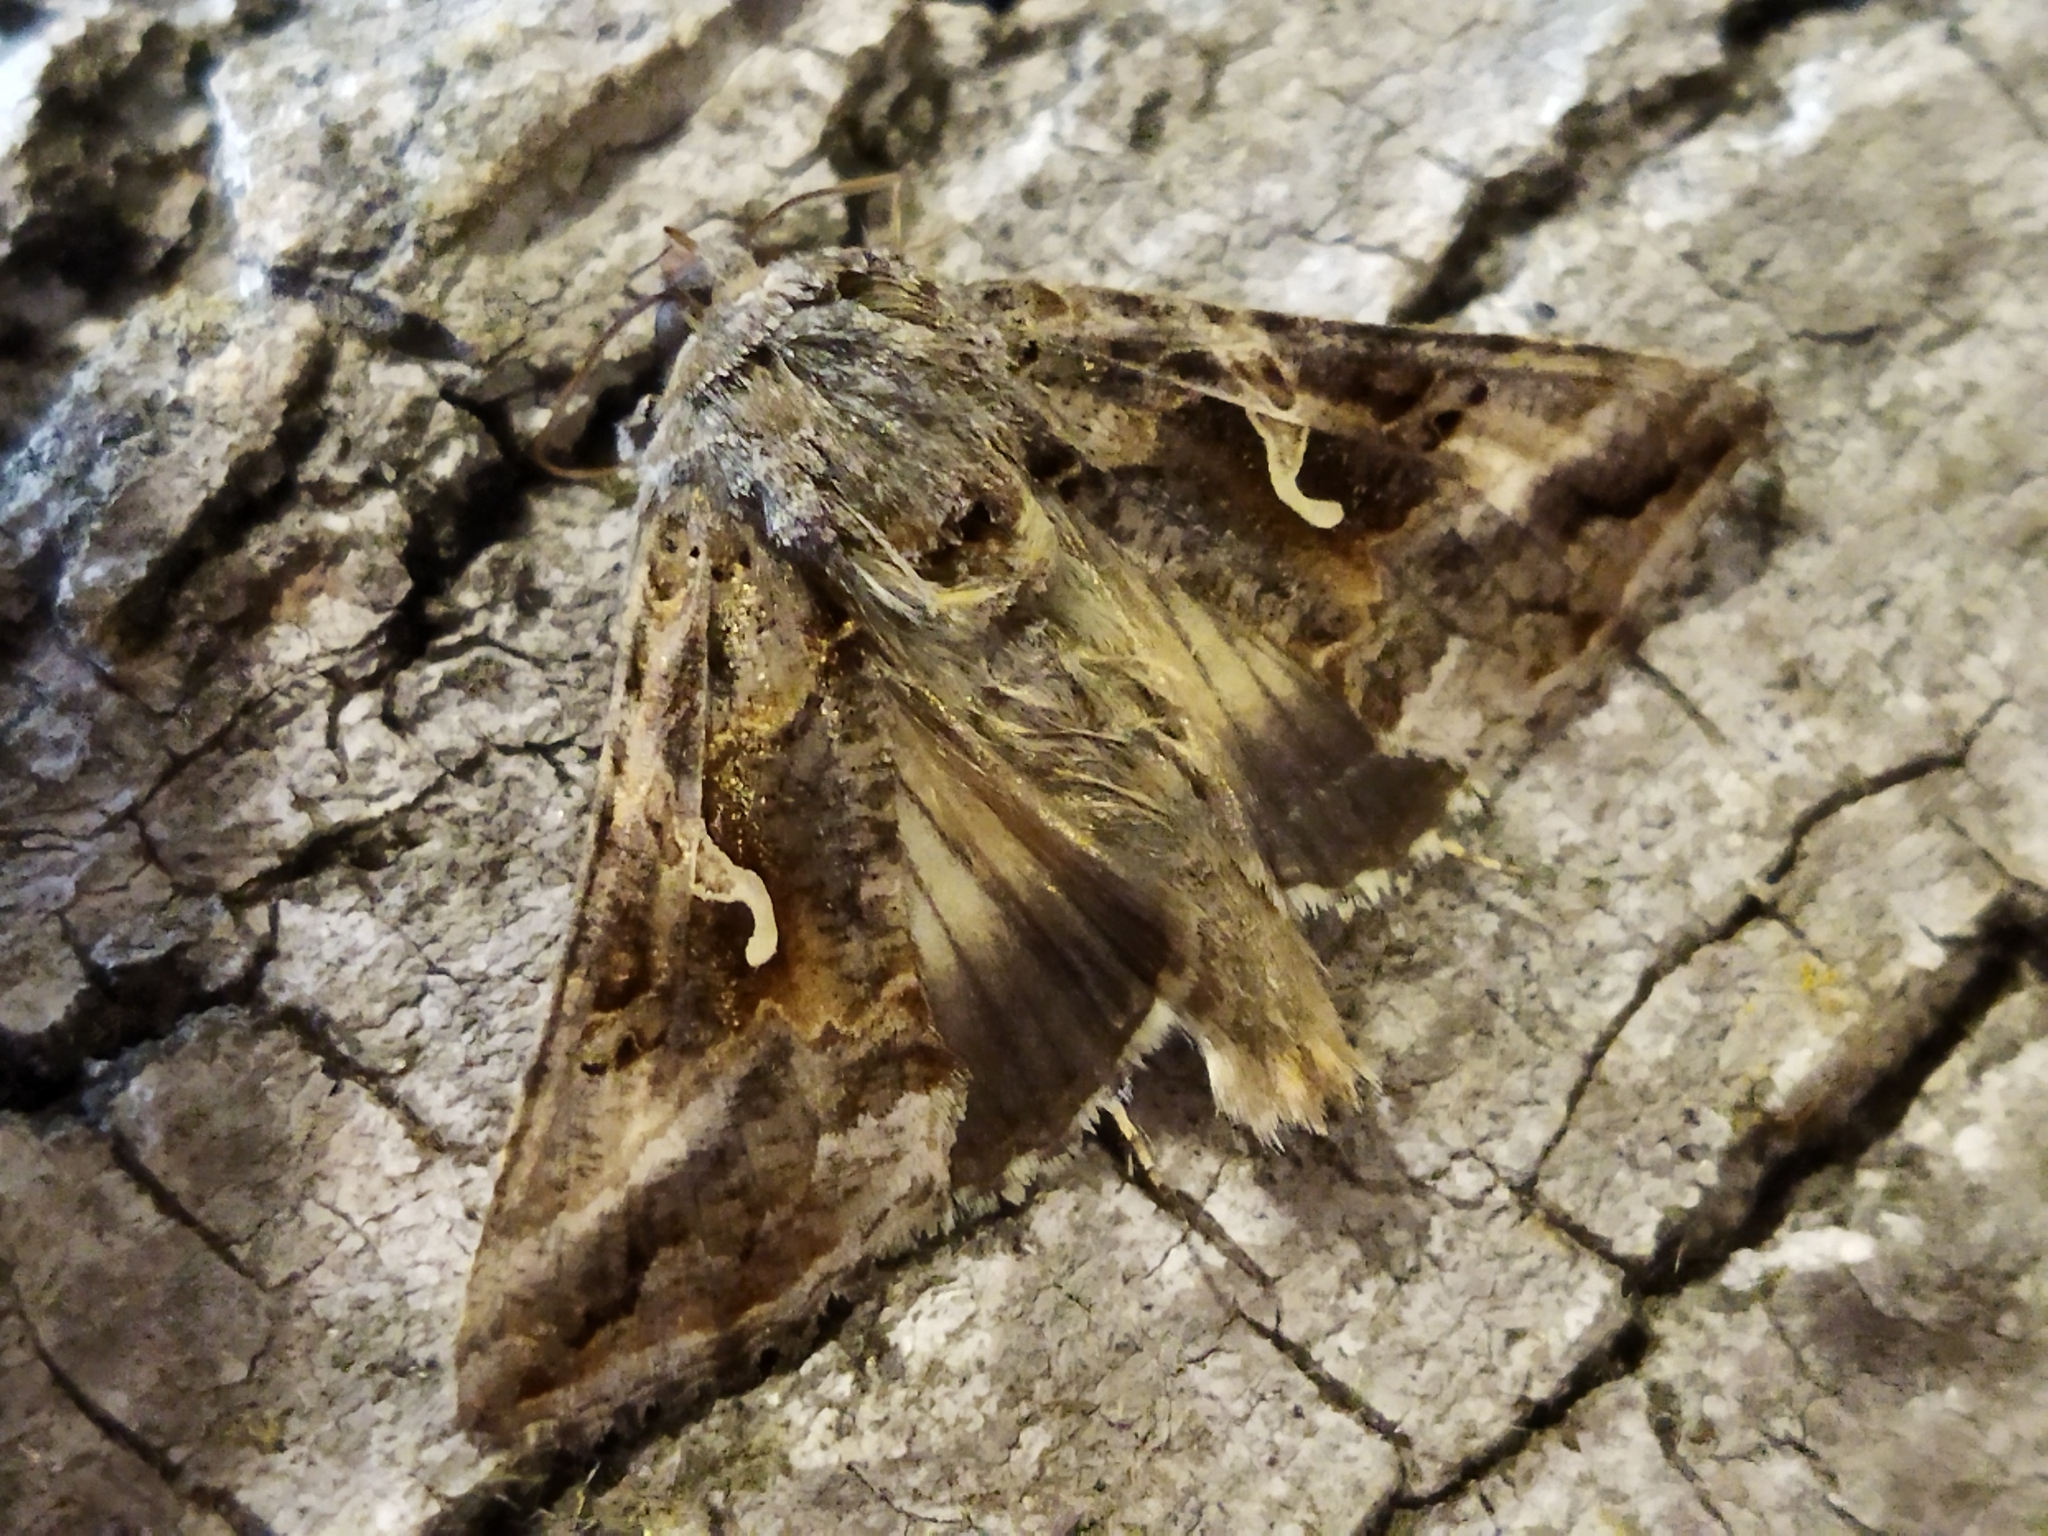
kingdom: Animalia
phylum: Arthropoda
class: Insecta
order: Lepidoptera
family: Noctuidae
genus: Autographa
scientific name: Autographa gamma
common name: Silver y
